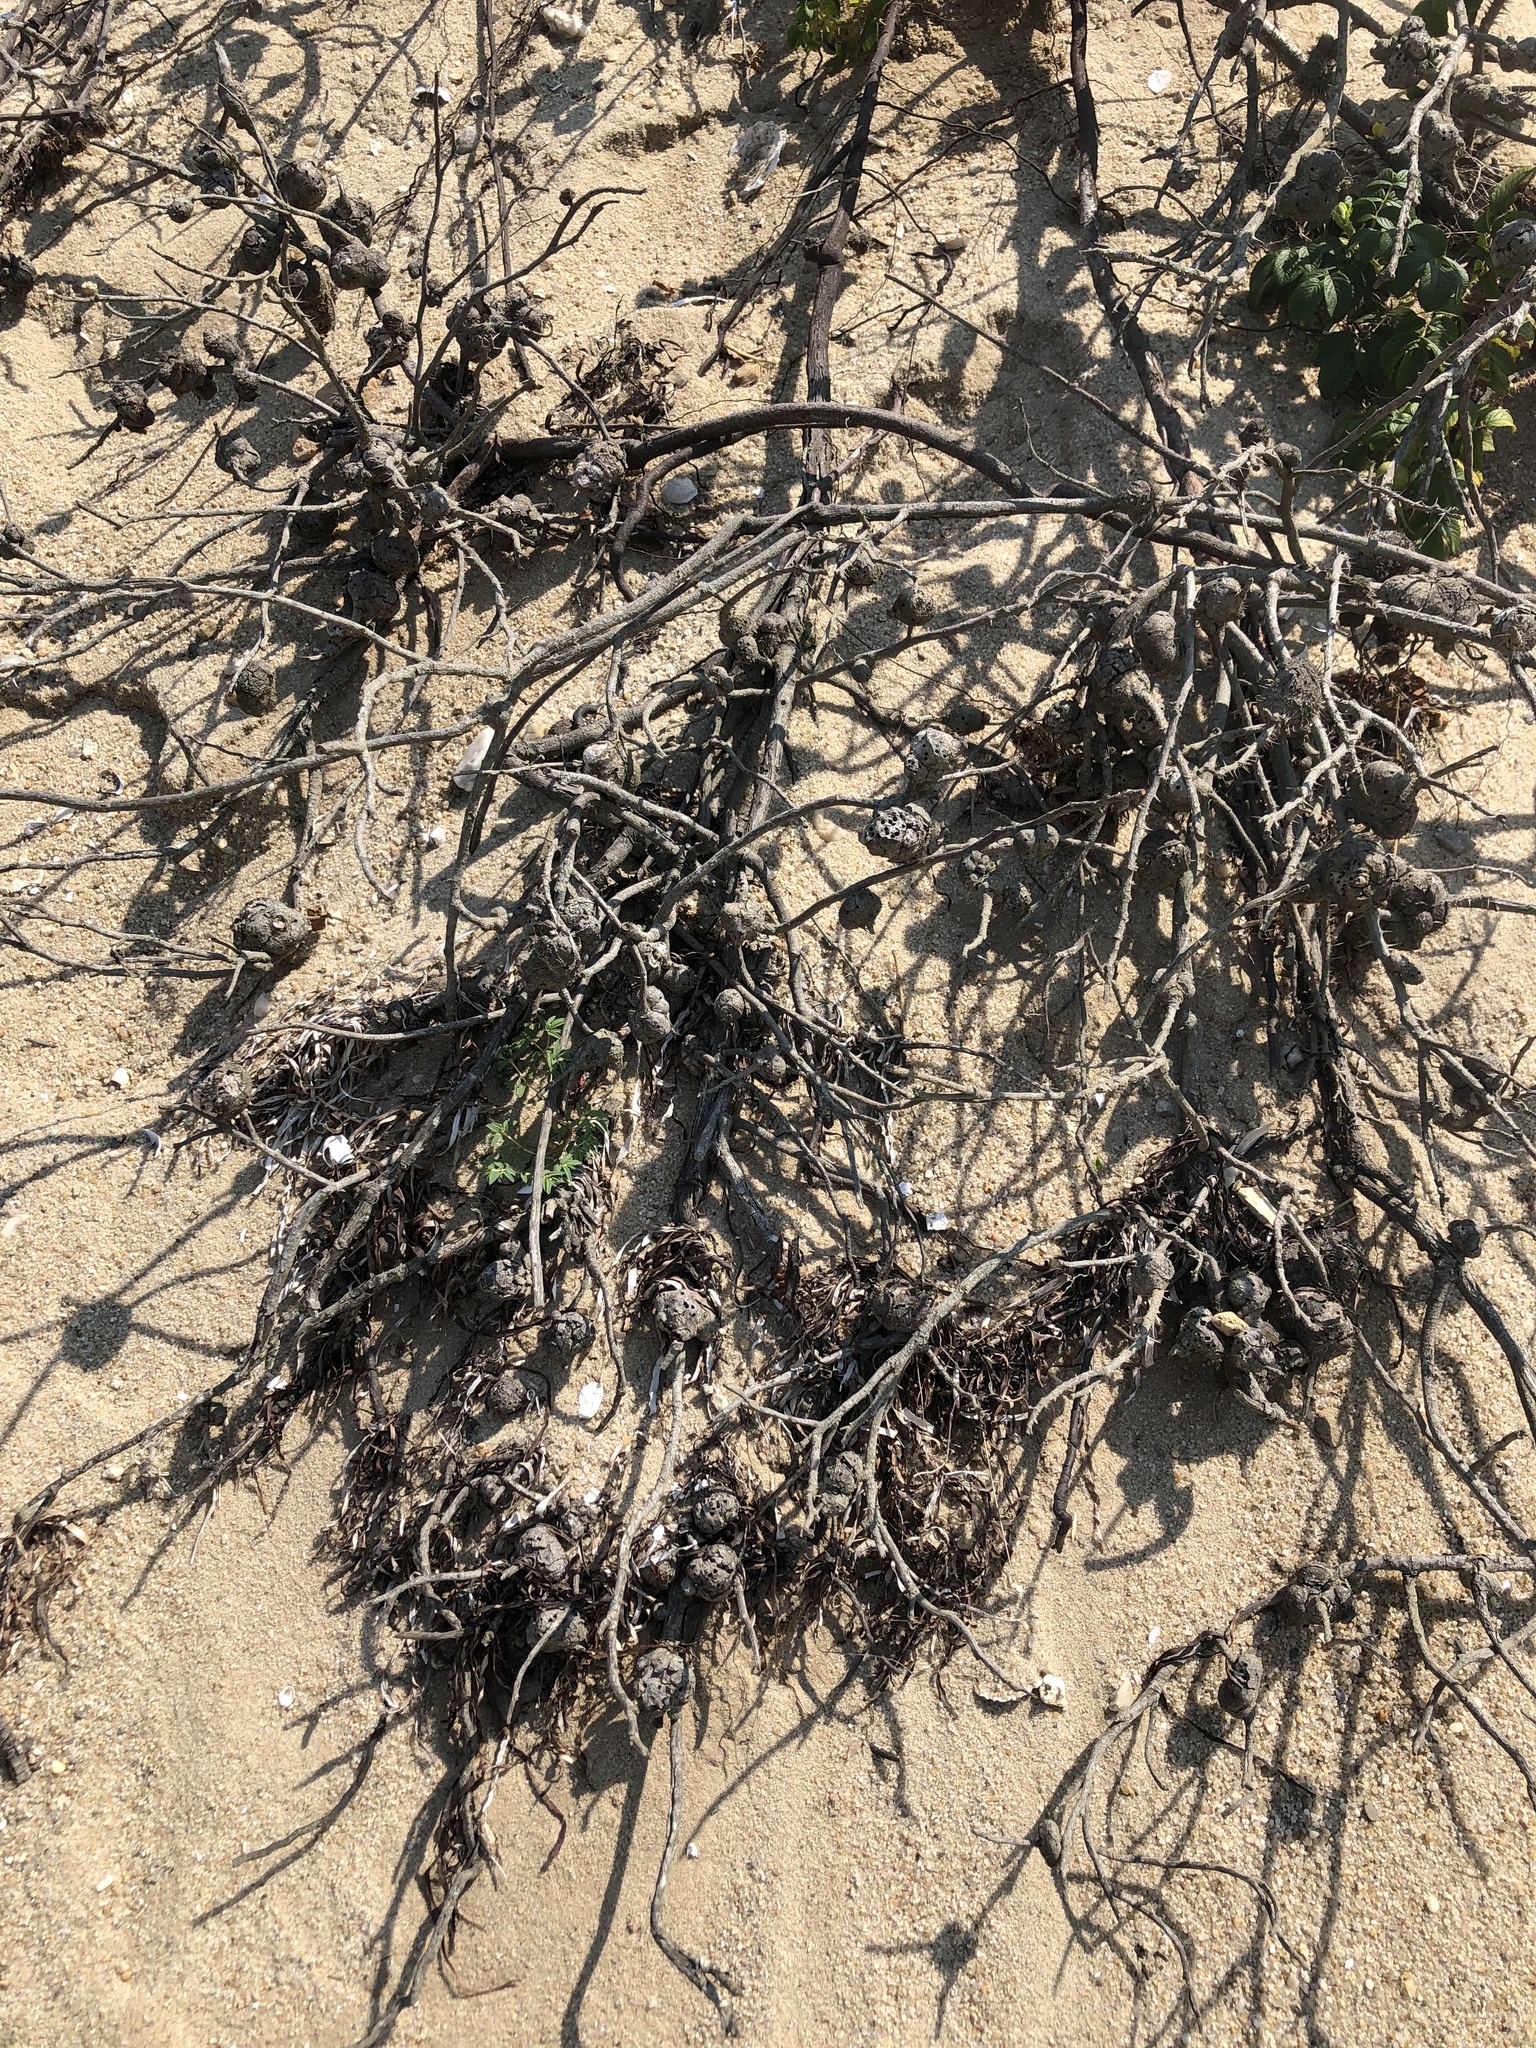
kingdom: Animalia
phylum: Arthropoda
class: Insecta
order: Hymenoptera
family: Cynipidae
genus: Diplolepis
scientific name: Diplolepis spinosa
